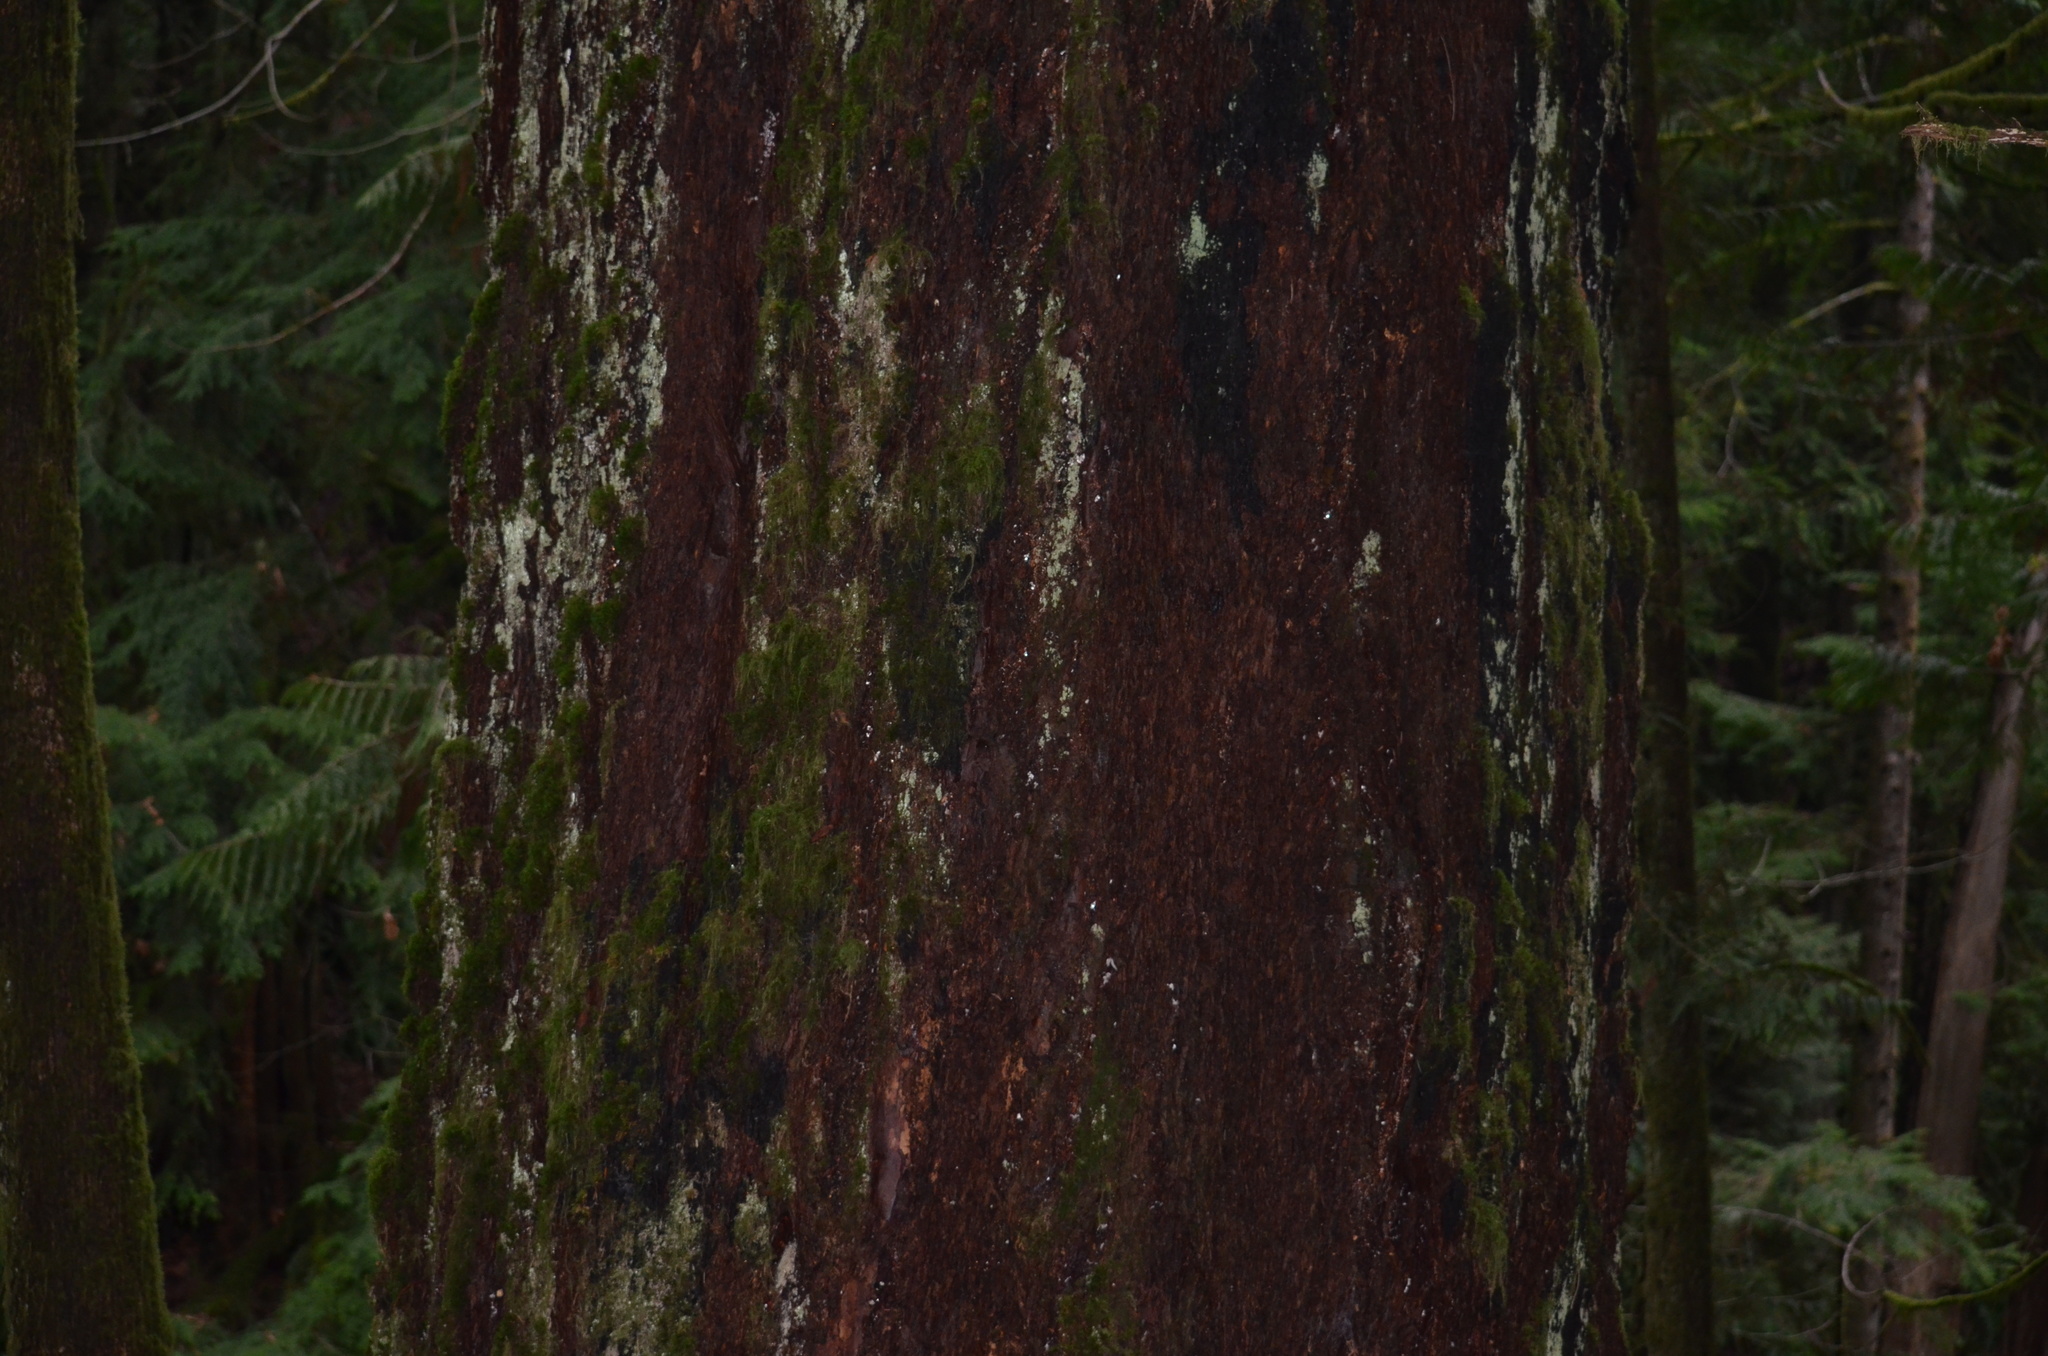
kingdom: Plantae
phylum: Tracheophyta
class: Pinopsida
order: Pinales
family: Pinaceae
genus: Pseudotsuga
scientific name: Pseudotsuga menziesii
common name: Douglas fir
